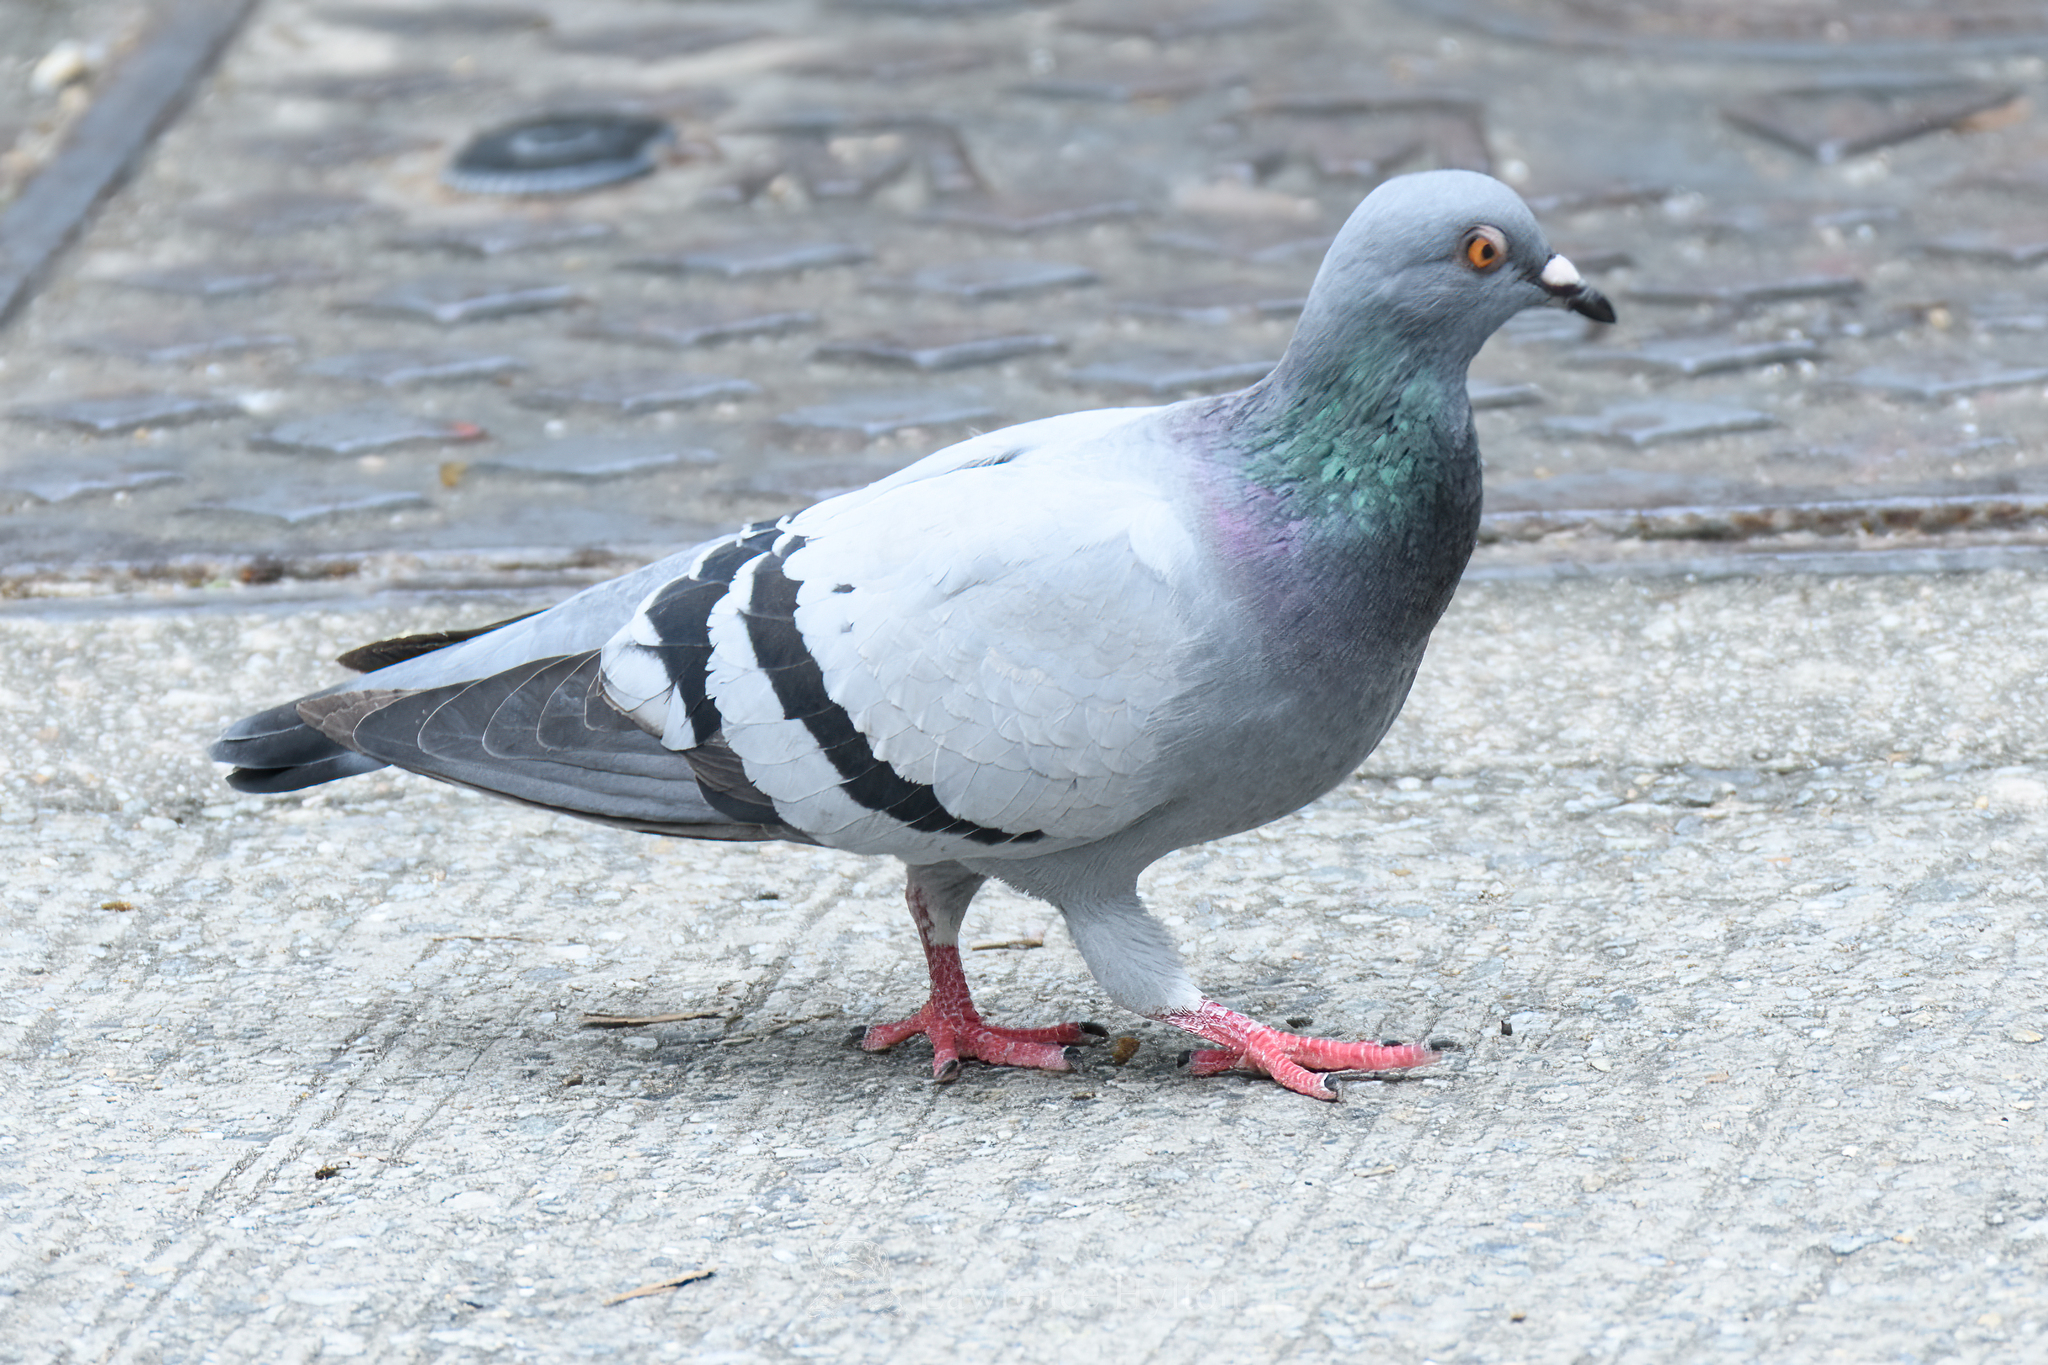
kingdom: Animalia
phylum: Chordata
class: Aves
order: Columbiformes
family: Columbidae
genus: Columba
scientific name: Columba livia
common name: Rock pigeon
